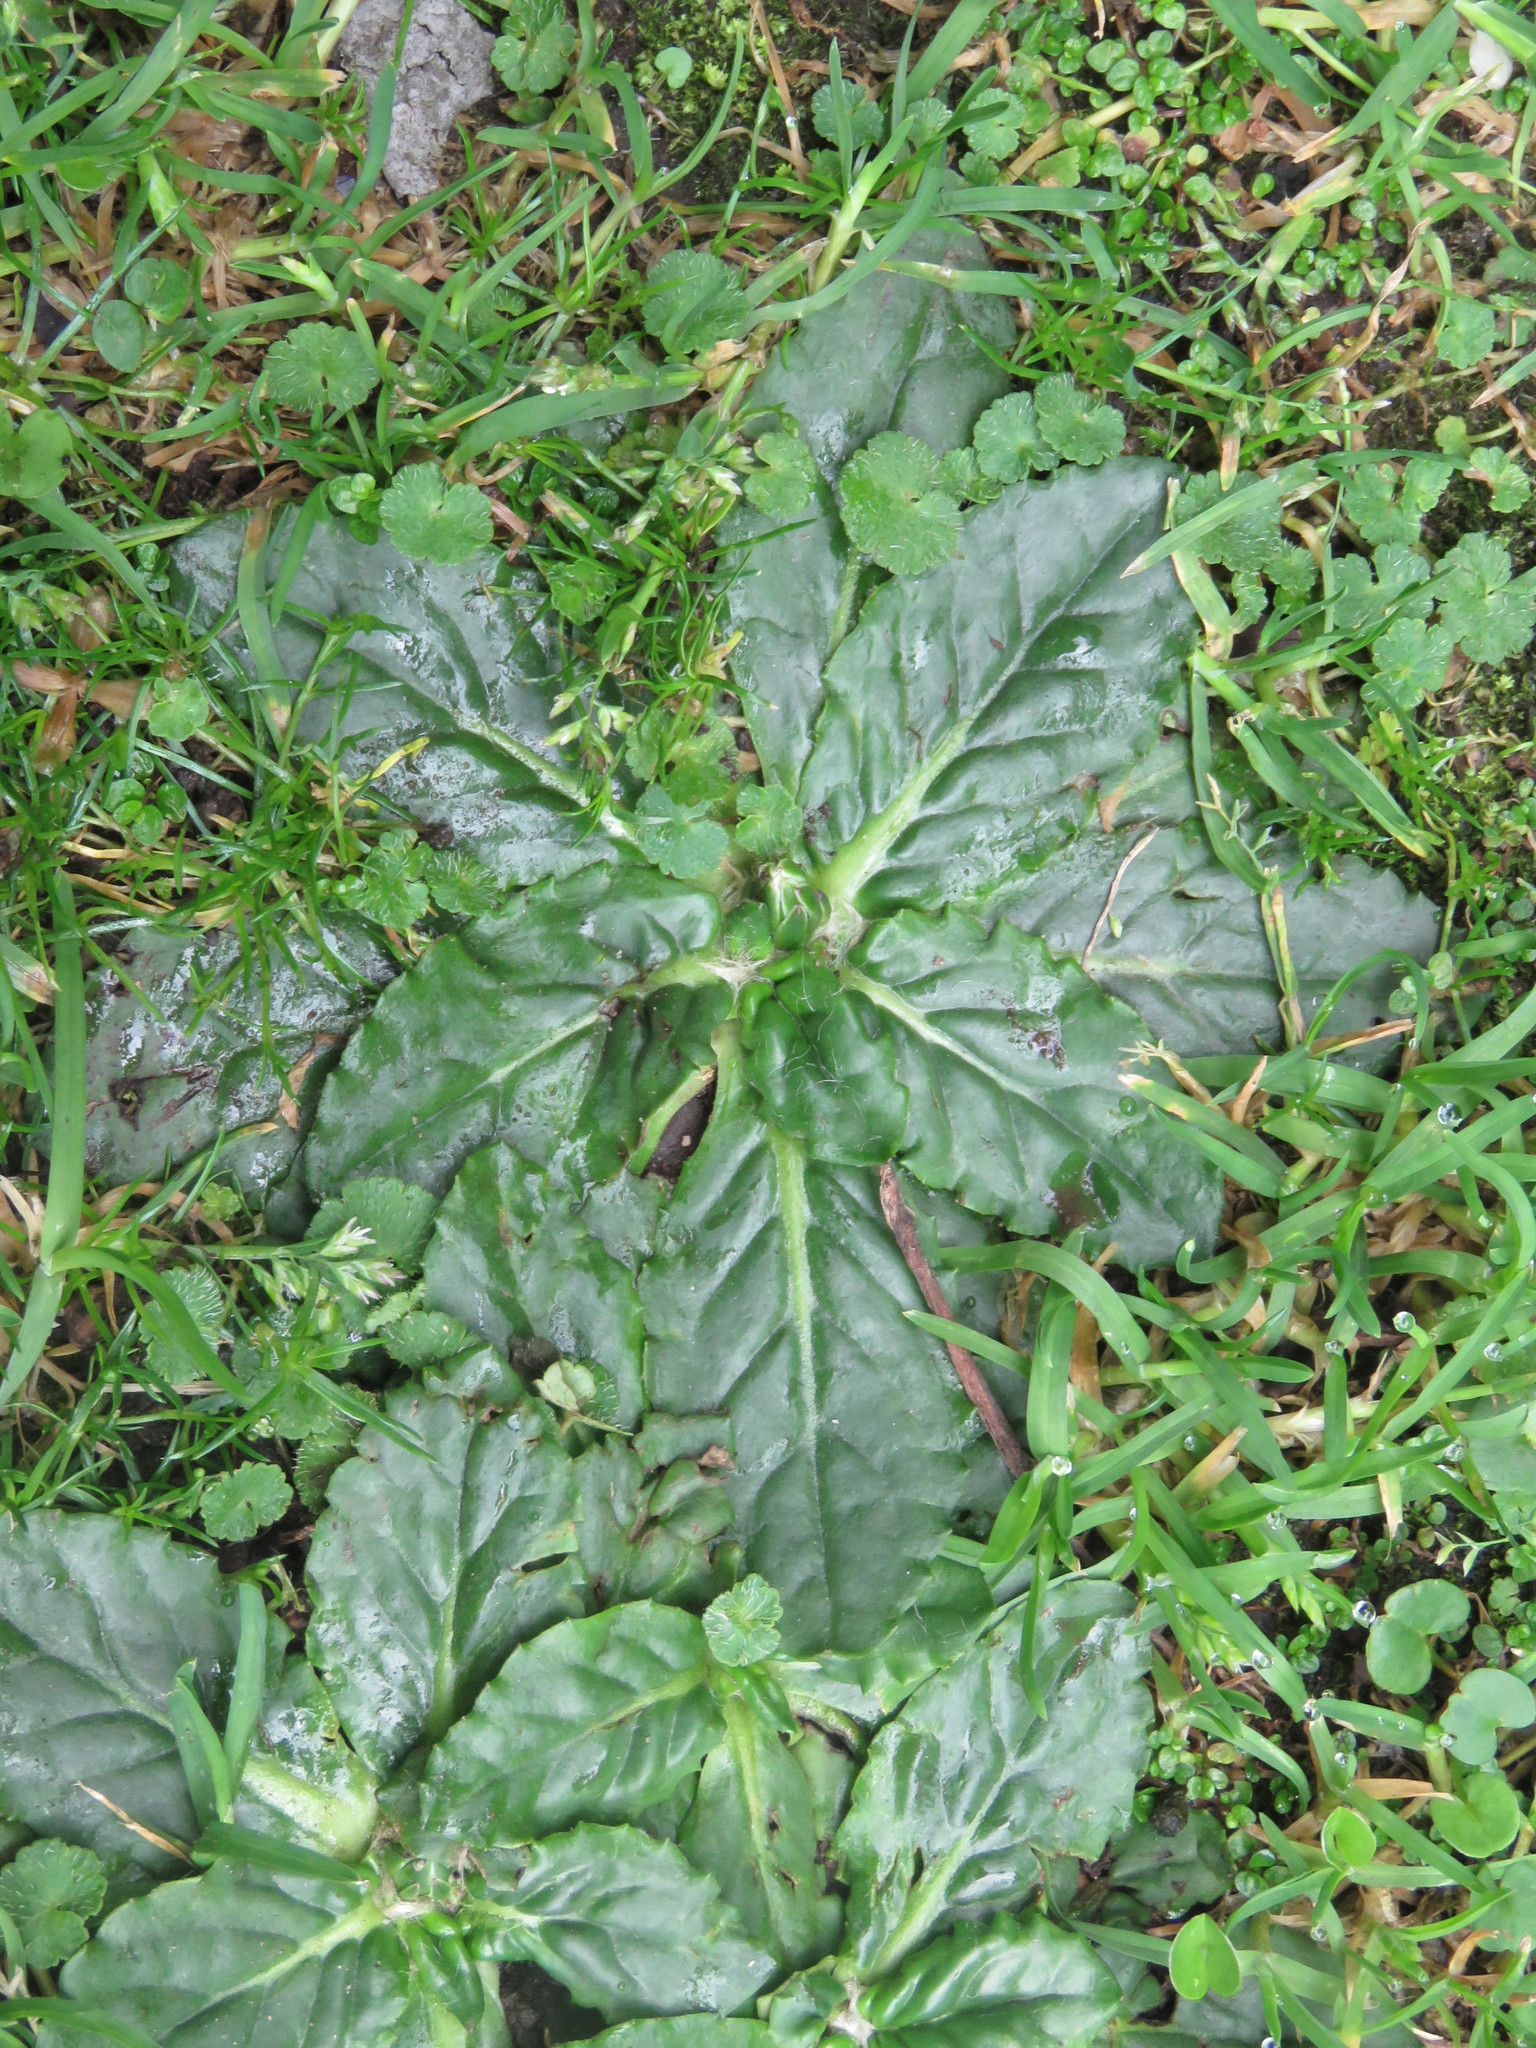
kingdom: Plantae
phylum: Tracheophyta
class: Magnoliopsida
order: Asterales
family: Asteraceae
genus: Chaptalia
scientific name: Chaptalia exscapa
